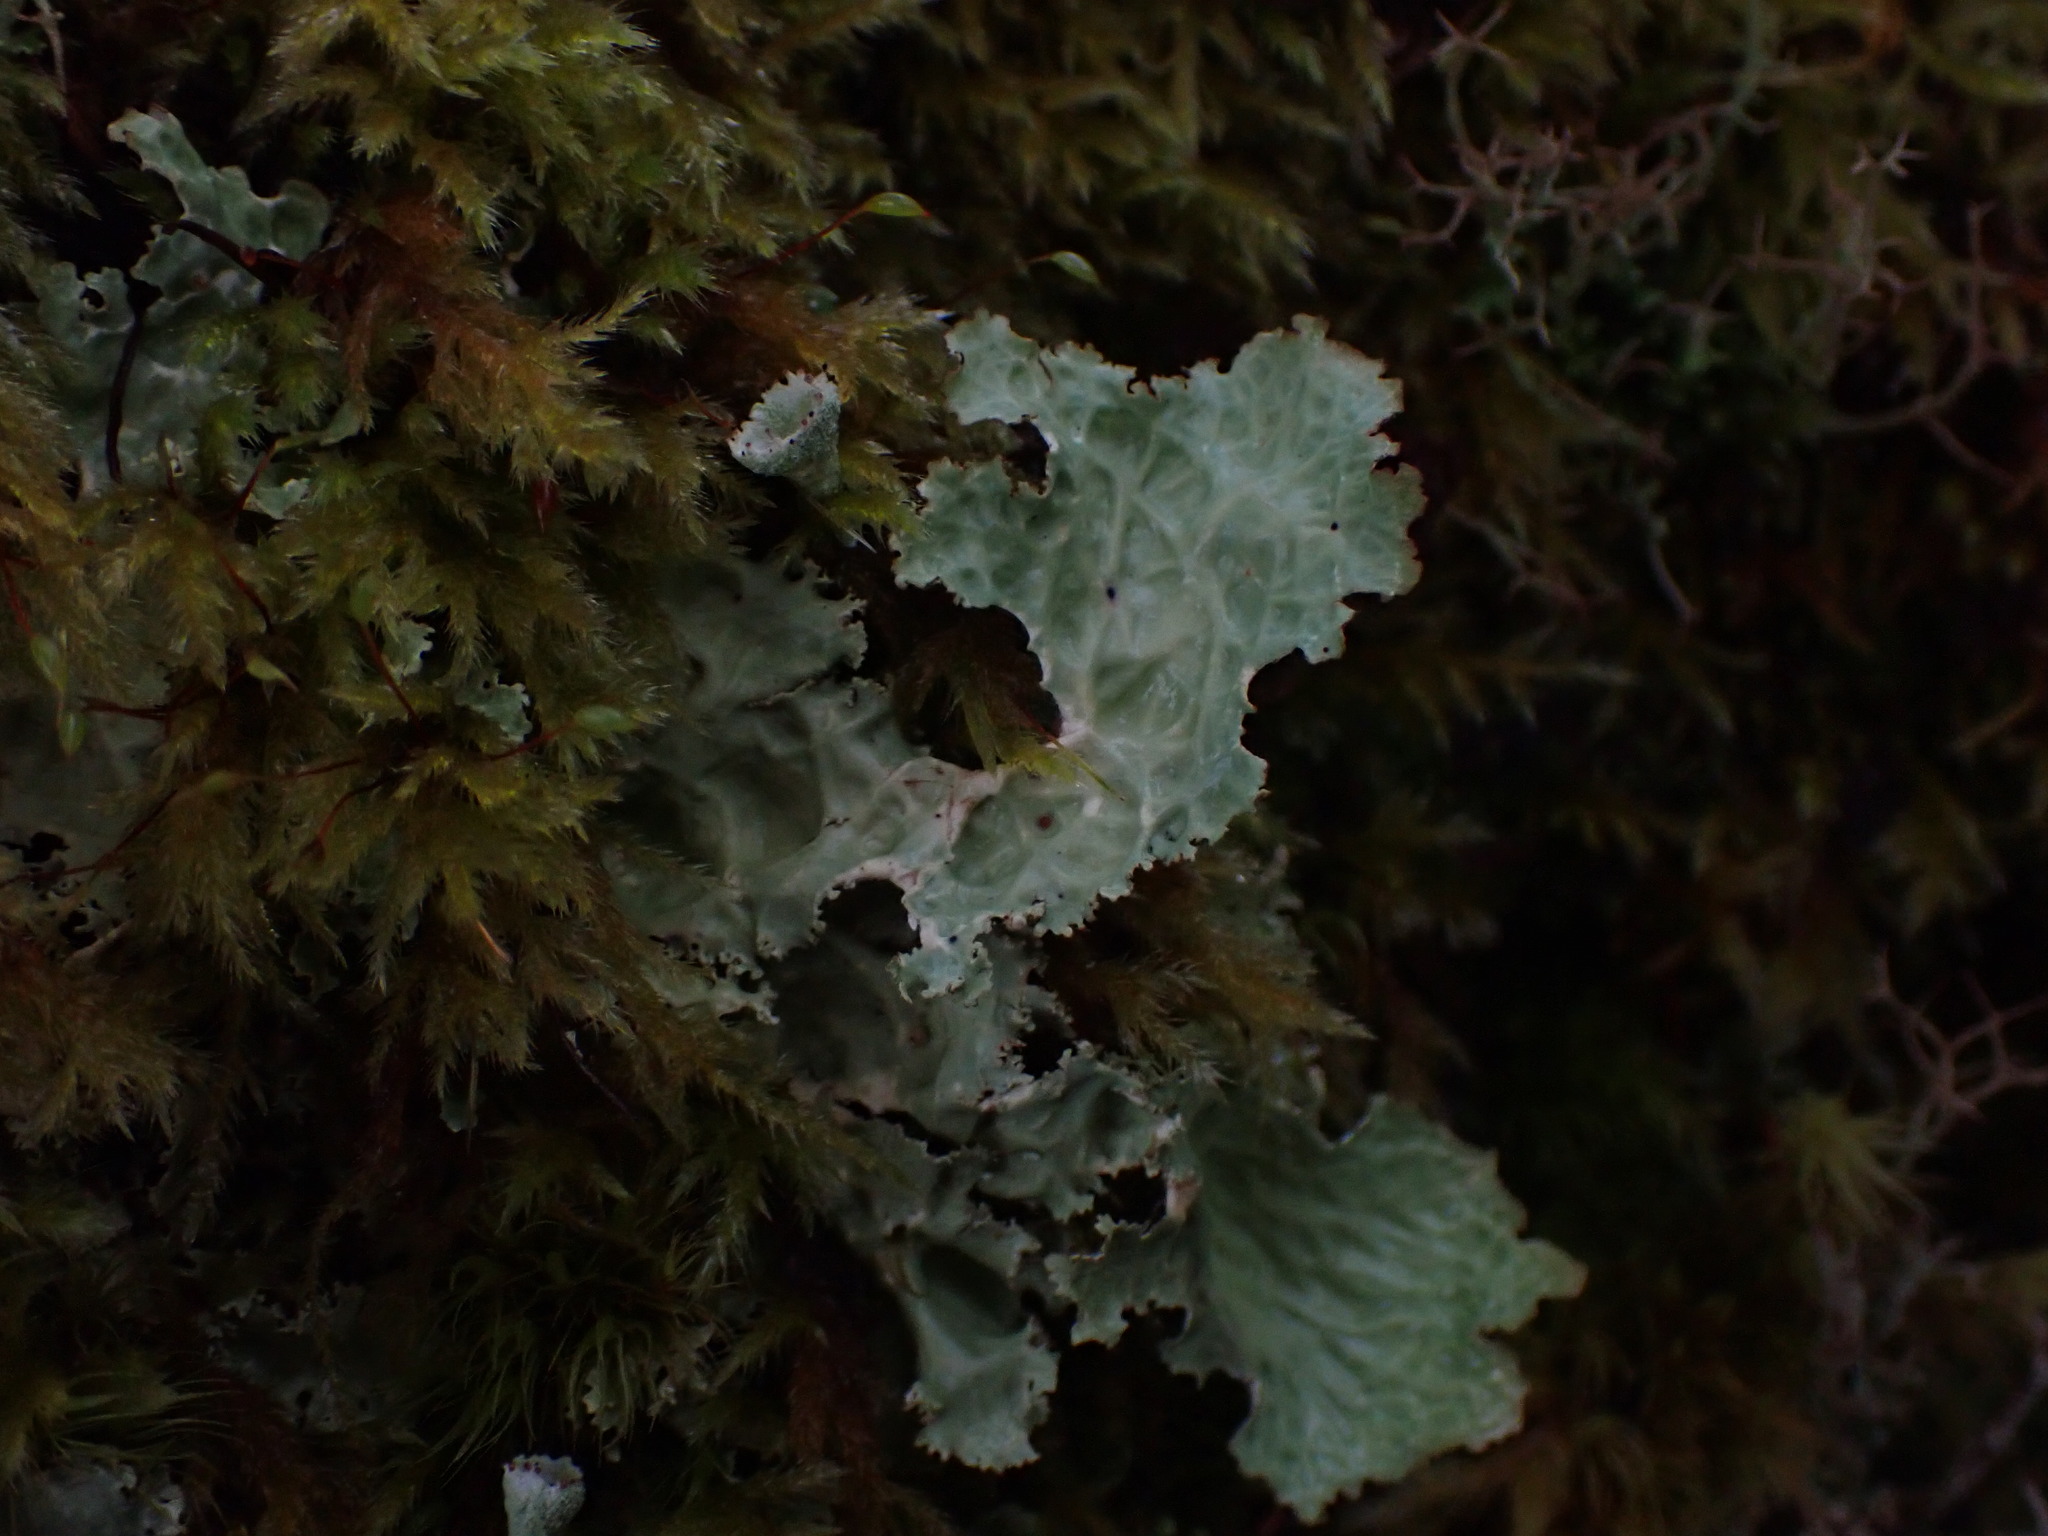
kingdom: Fungi
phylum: Ascomycota
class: Lecanoromycetes
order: Peltigerales
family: Lobariaceae
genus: Lobaria
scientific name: Lobaria oregana
